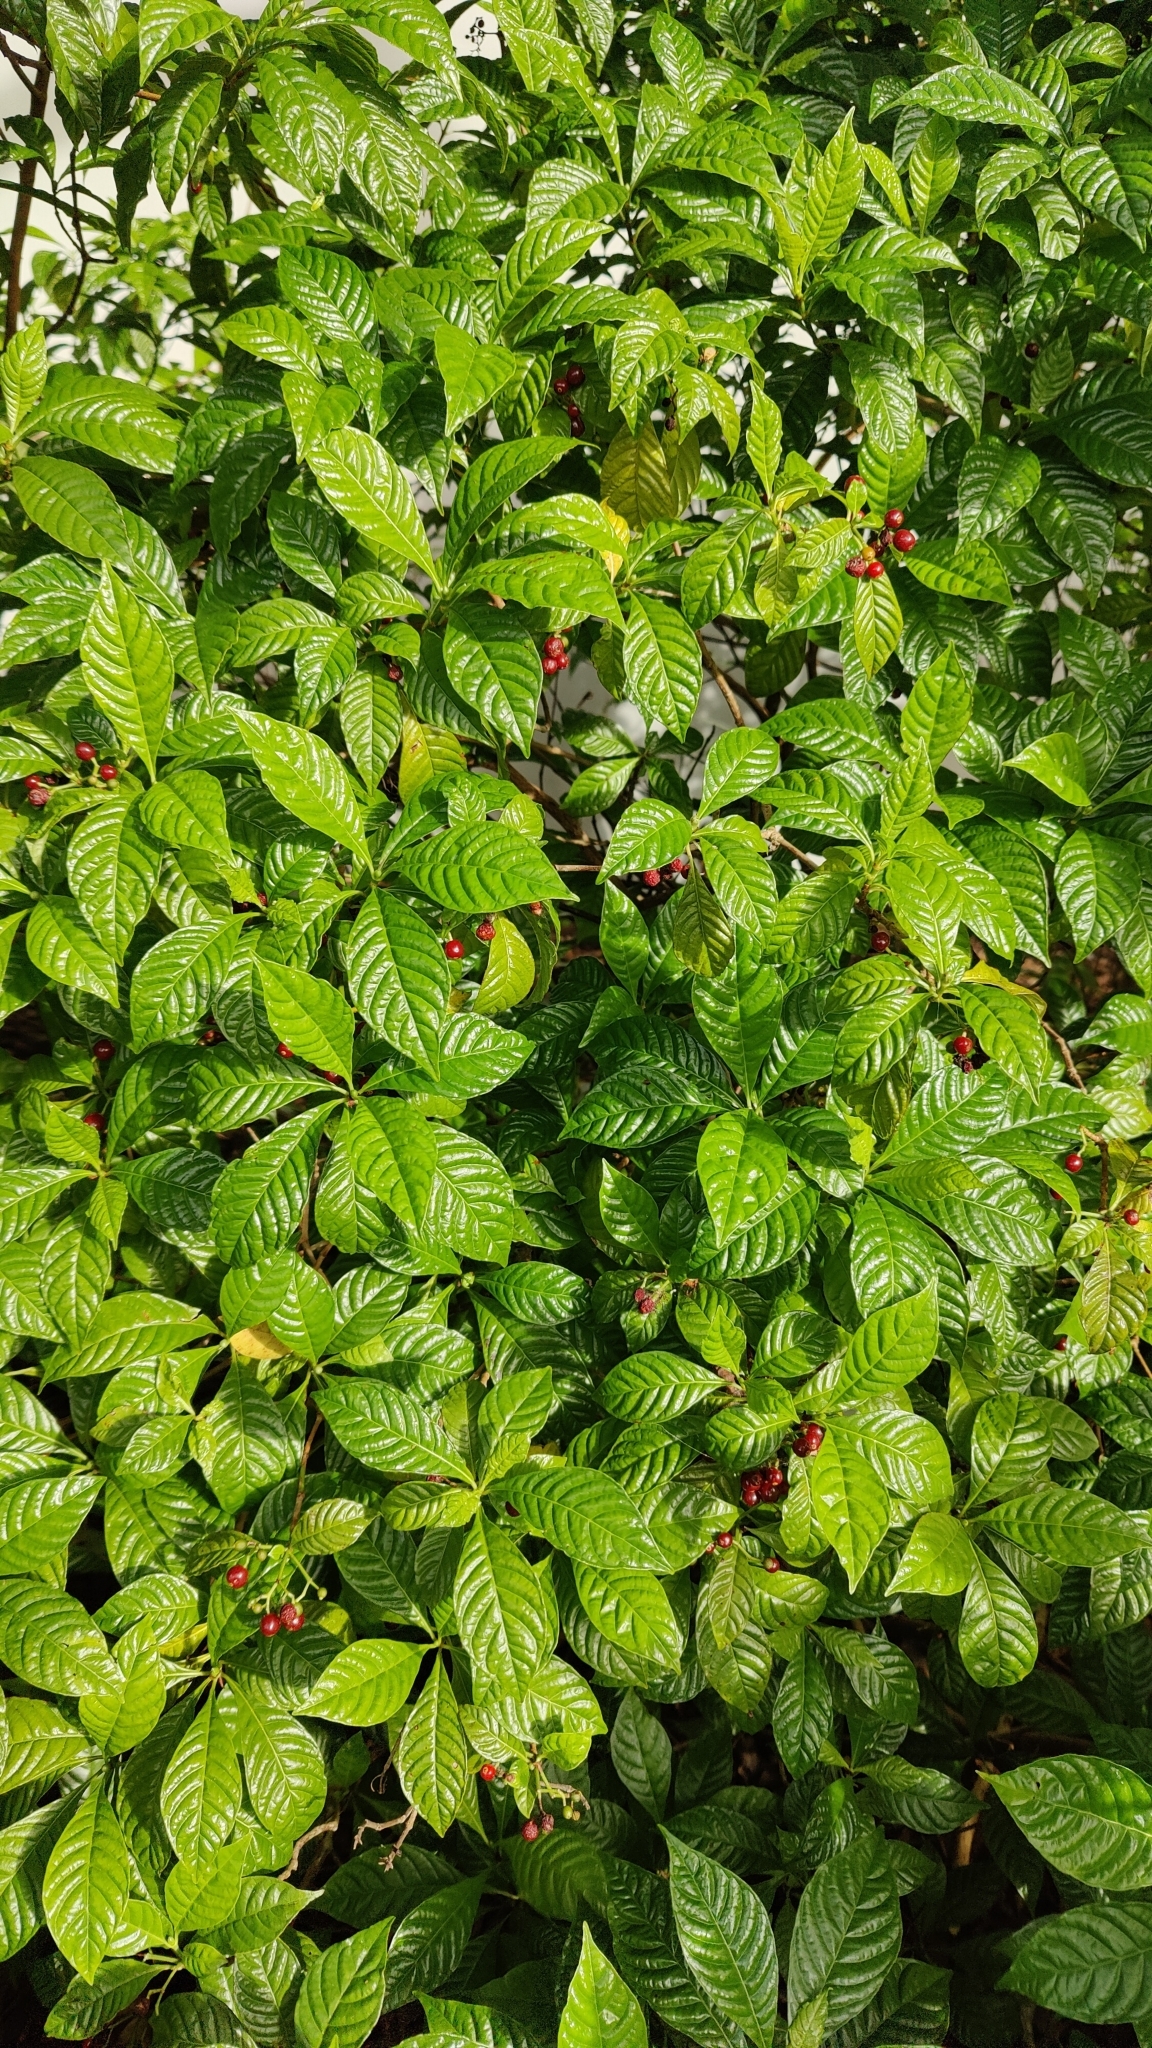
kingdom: Plantae
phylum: Tracheophyta
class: Magnoliopsida
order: Gentianales
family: Rubiaceae
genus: Psychotria
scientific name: Psychotria nervosa
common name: Bastard cankerberry
